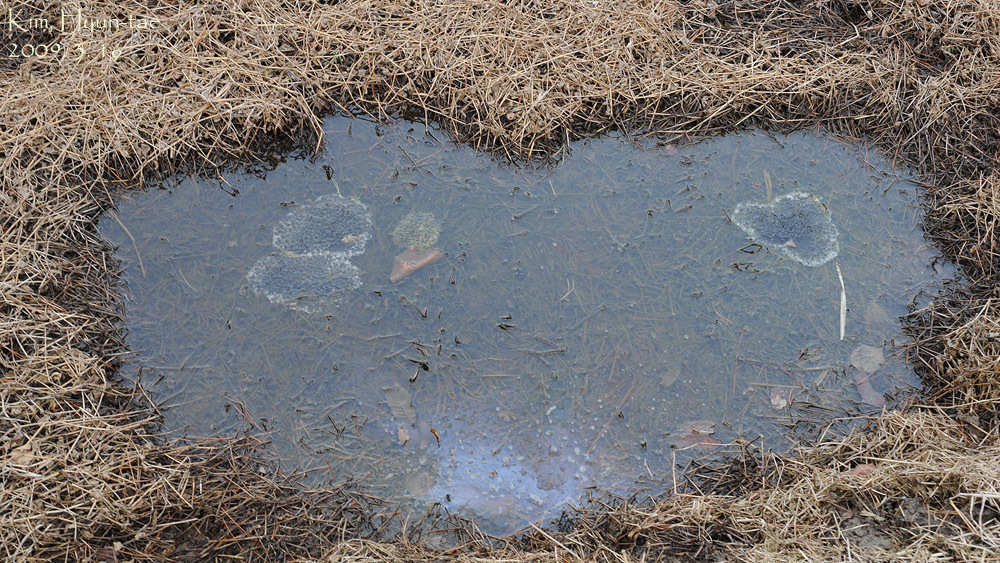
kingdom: Animalia
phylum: Chordata
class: Amphibia
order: Anura
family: Ranidae
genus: Rana
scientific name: Rana uenoi
